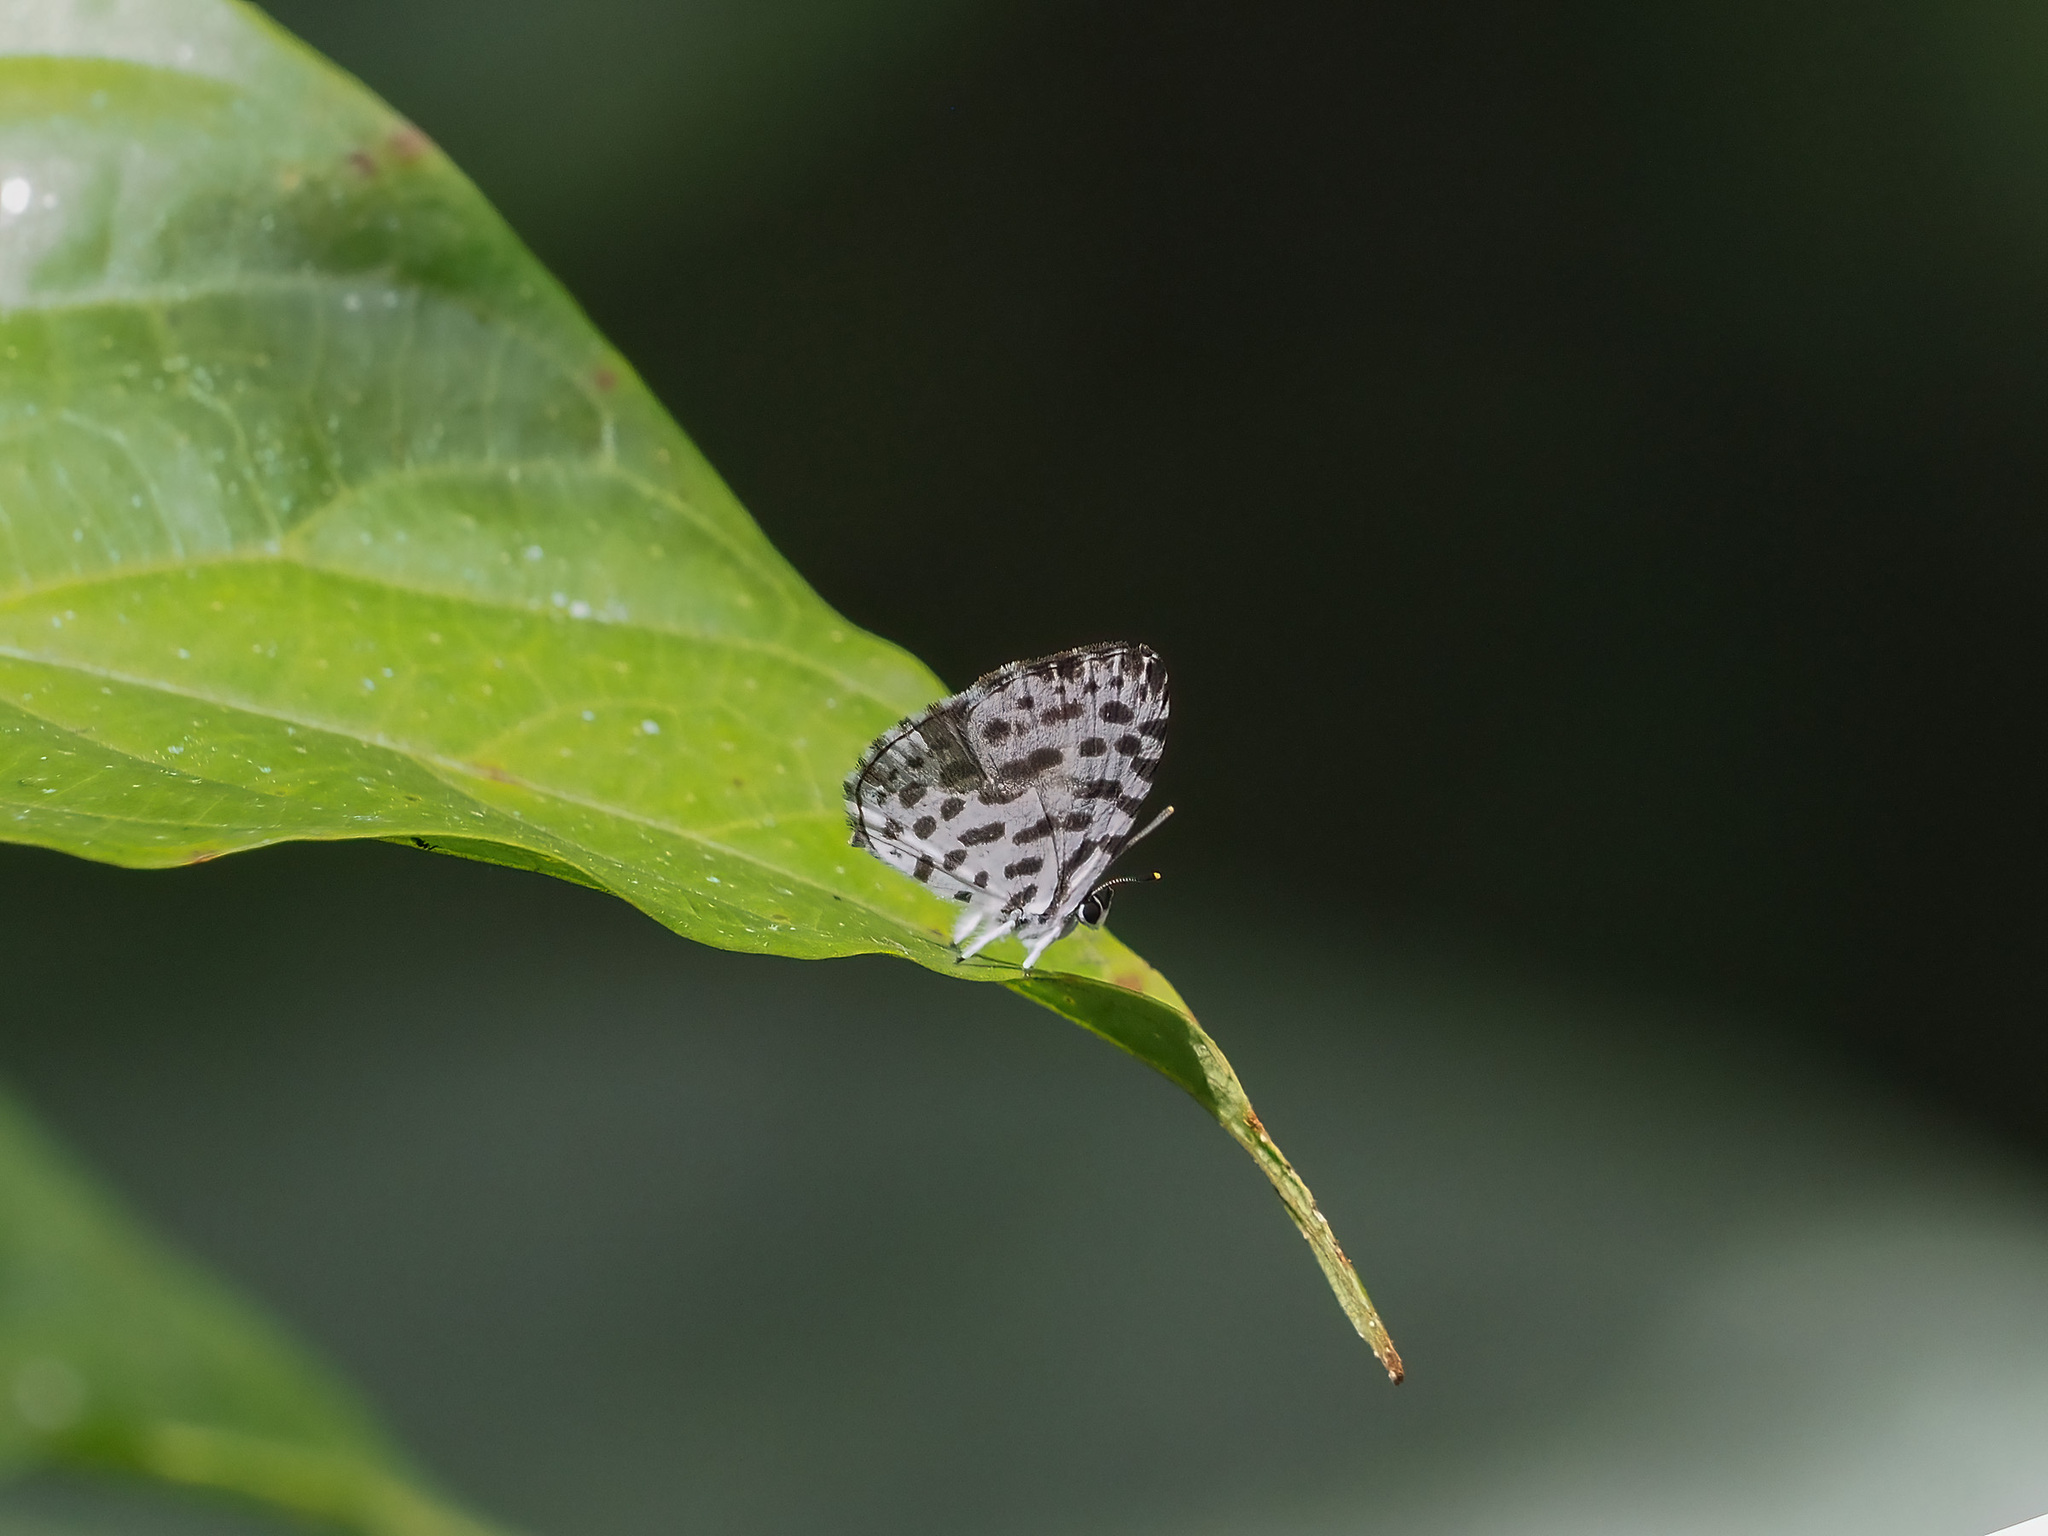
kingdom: Animalia
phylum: Arthropoda
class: Insecta
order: Lepidoptera
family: Lycaenidae
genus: Taraka
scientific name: Taraka hamada
